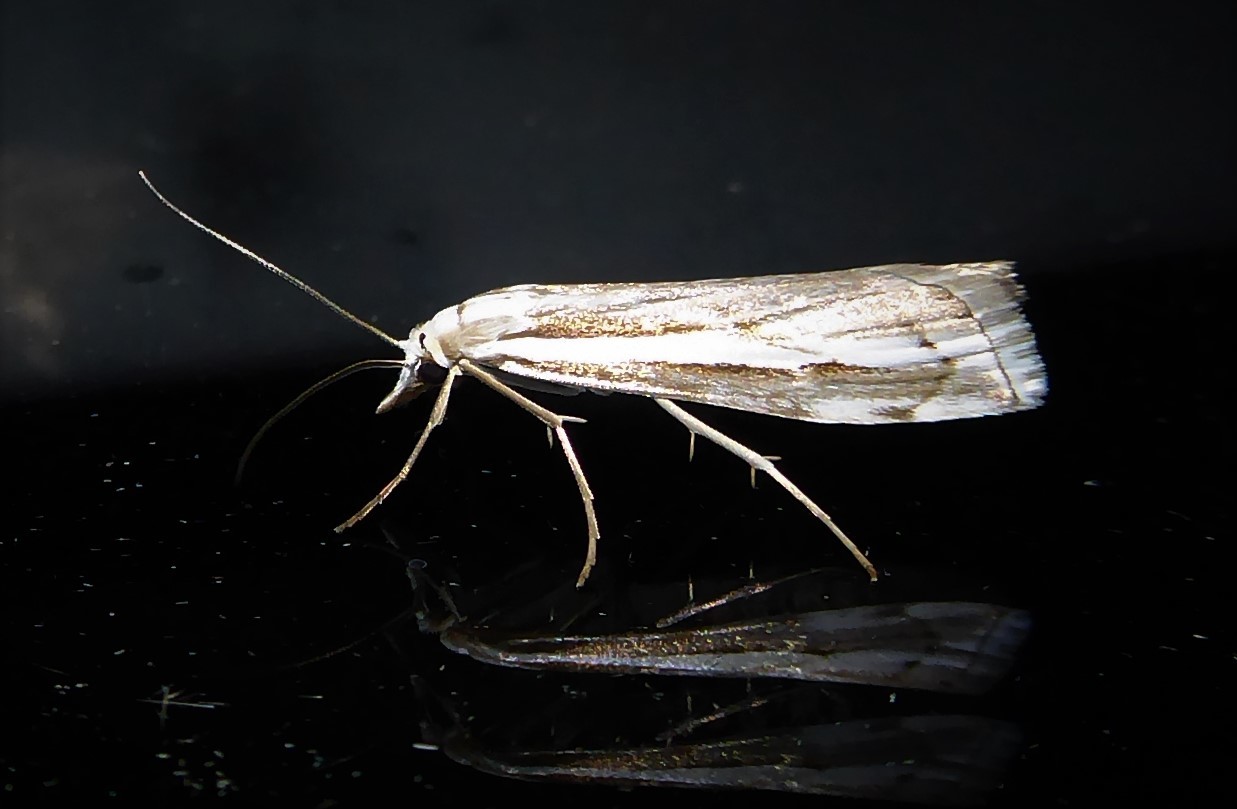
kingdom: Animalia
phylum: Arthropoda
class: Insecta
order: Lepidoptera
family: Crambidae
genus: Orocrambus
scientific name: Orocrambus vittellus
